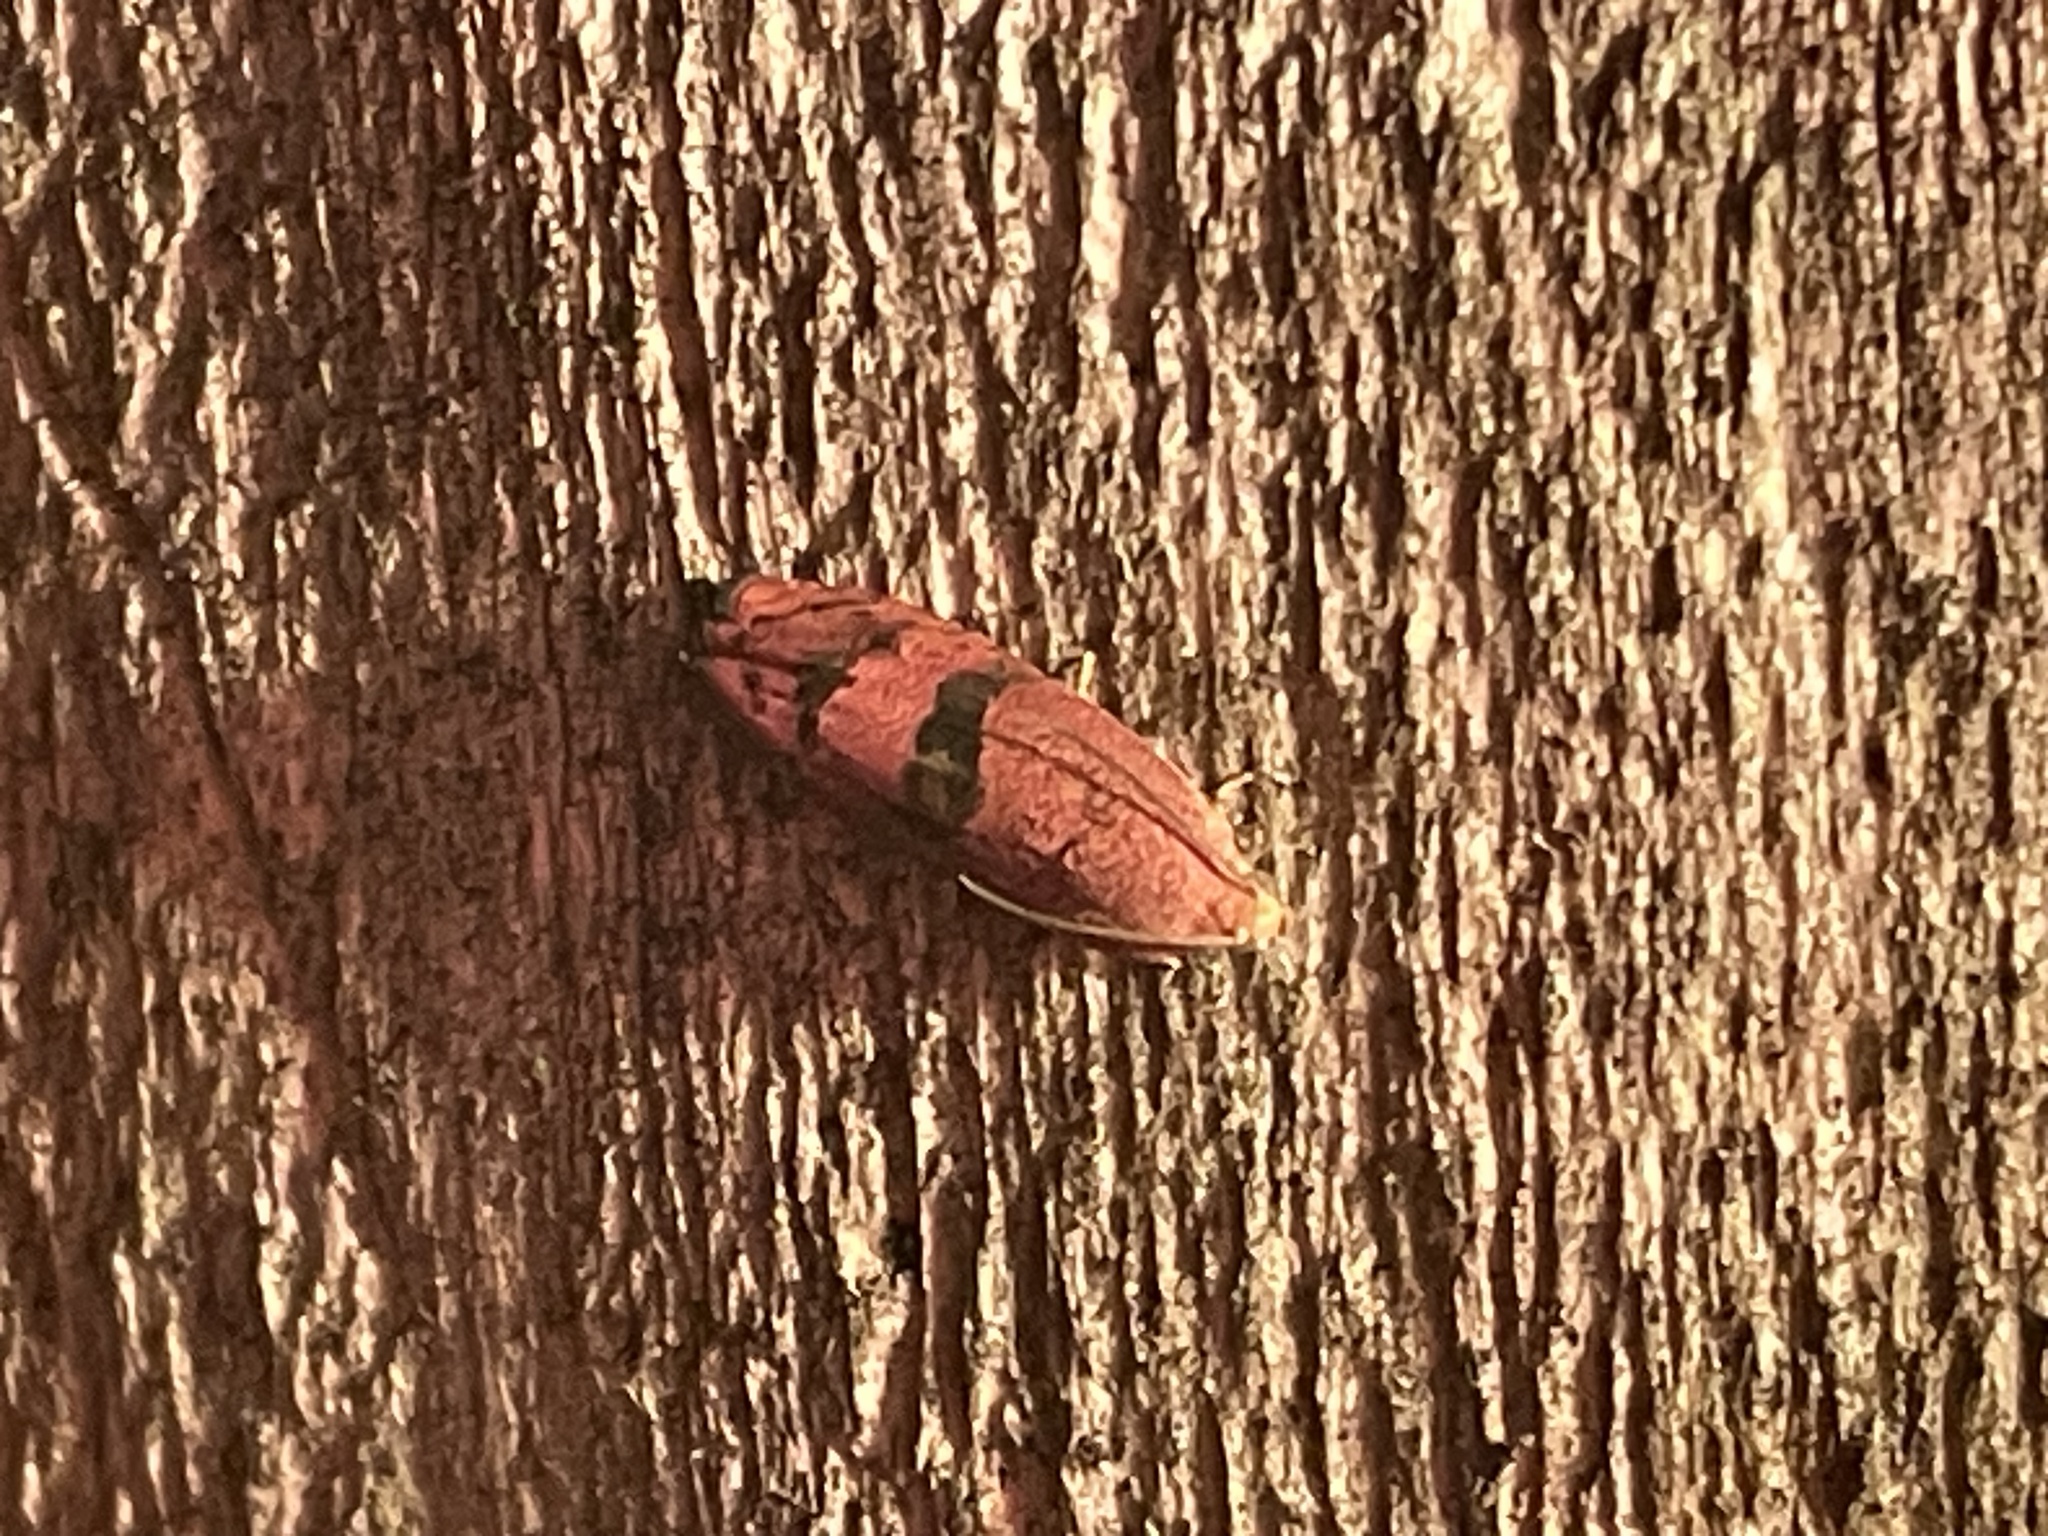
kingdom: Animalia
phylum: Arthropoda
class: Insecta
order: Lepidoptera
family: Tortricidae
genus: Cydia
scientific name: Cydia latiferreana
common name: Filbertworm moth
